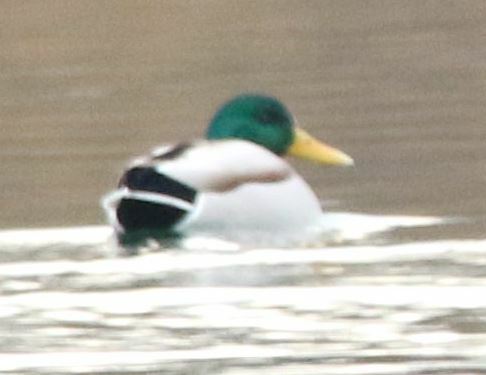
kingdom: Animalia
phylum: Chordata
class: Aves
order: Anseriformes
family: Anatidae
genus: Anas
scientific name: Anas platyrhynchos
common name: Mallard
